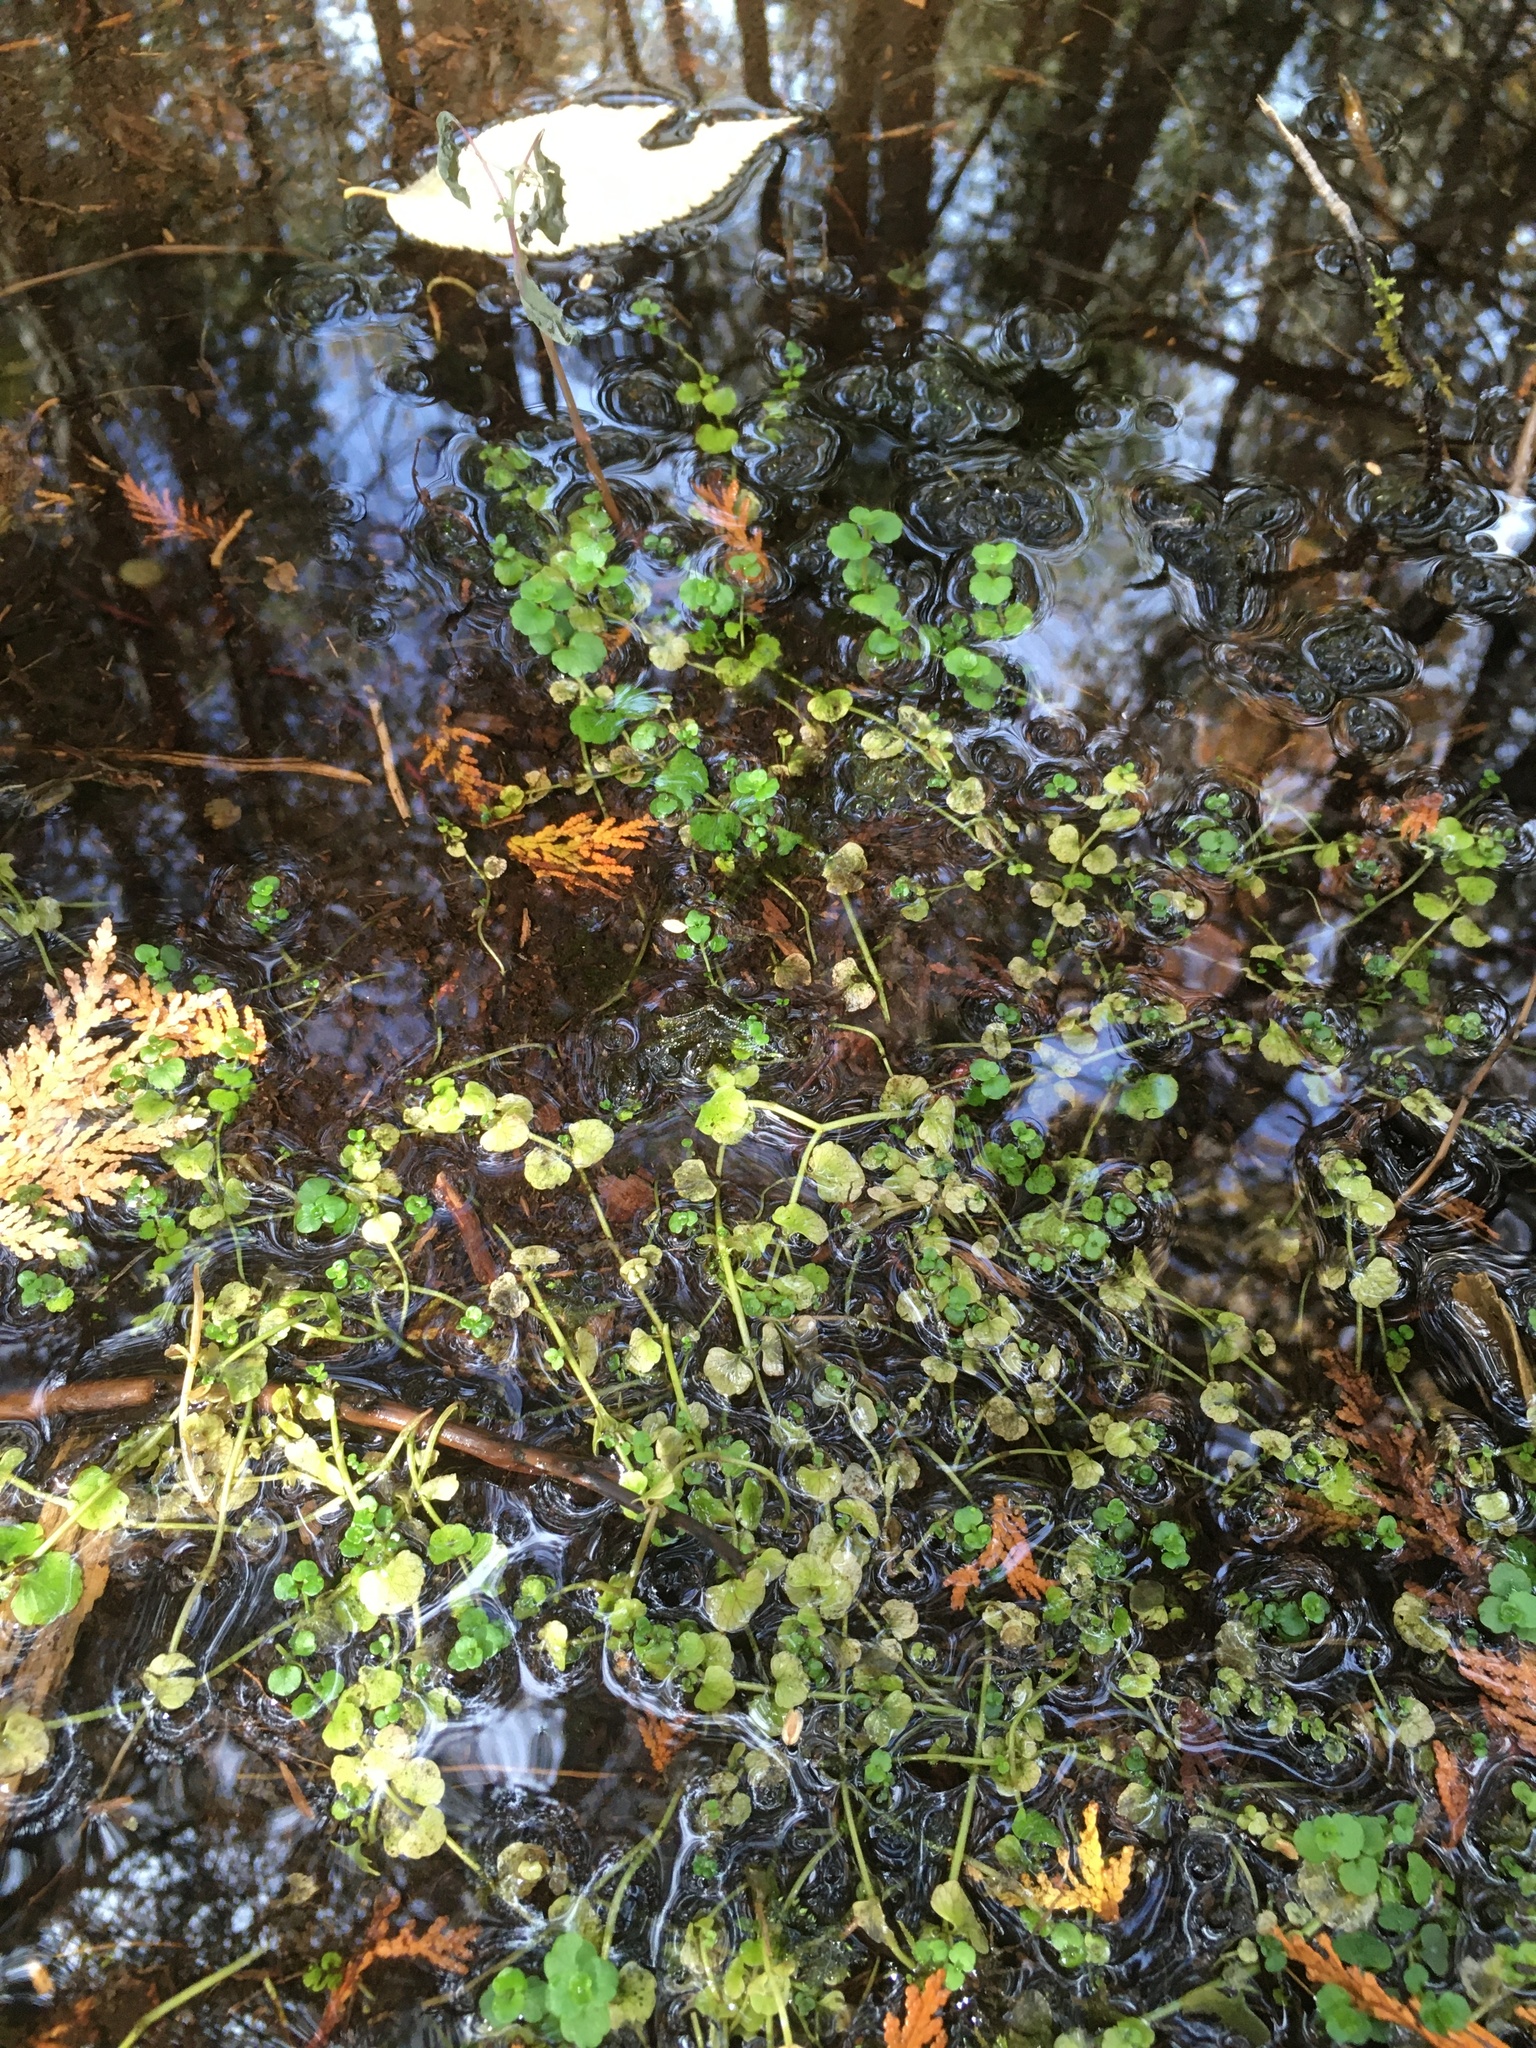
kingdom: Plantae
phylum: Tracheophyta
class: Magnoliopsida
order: Saxifragales
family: Saxifragaceae
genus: Chrysosplenium
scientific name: Chrysosplenium americanum
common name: American golden-saxifrage
